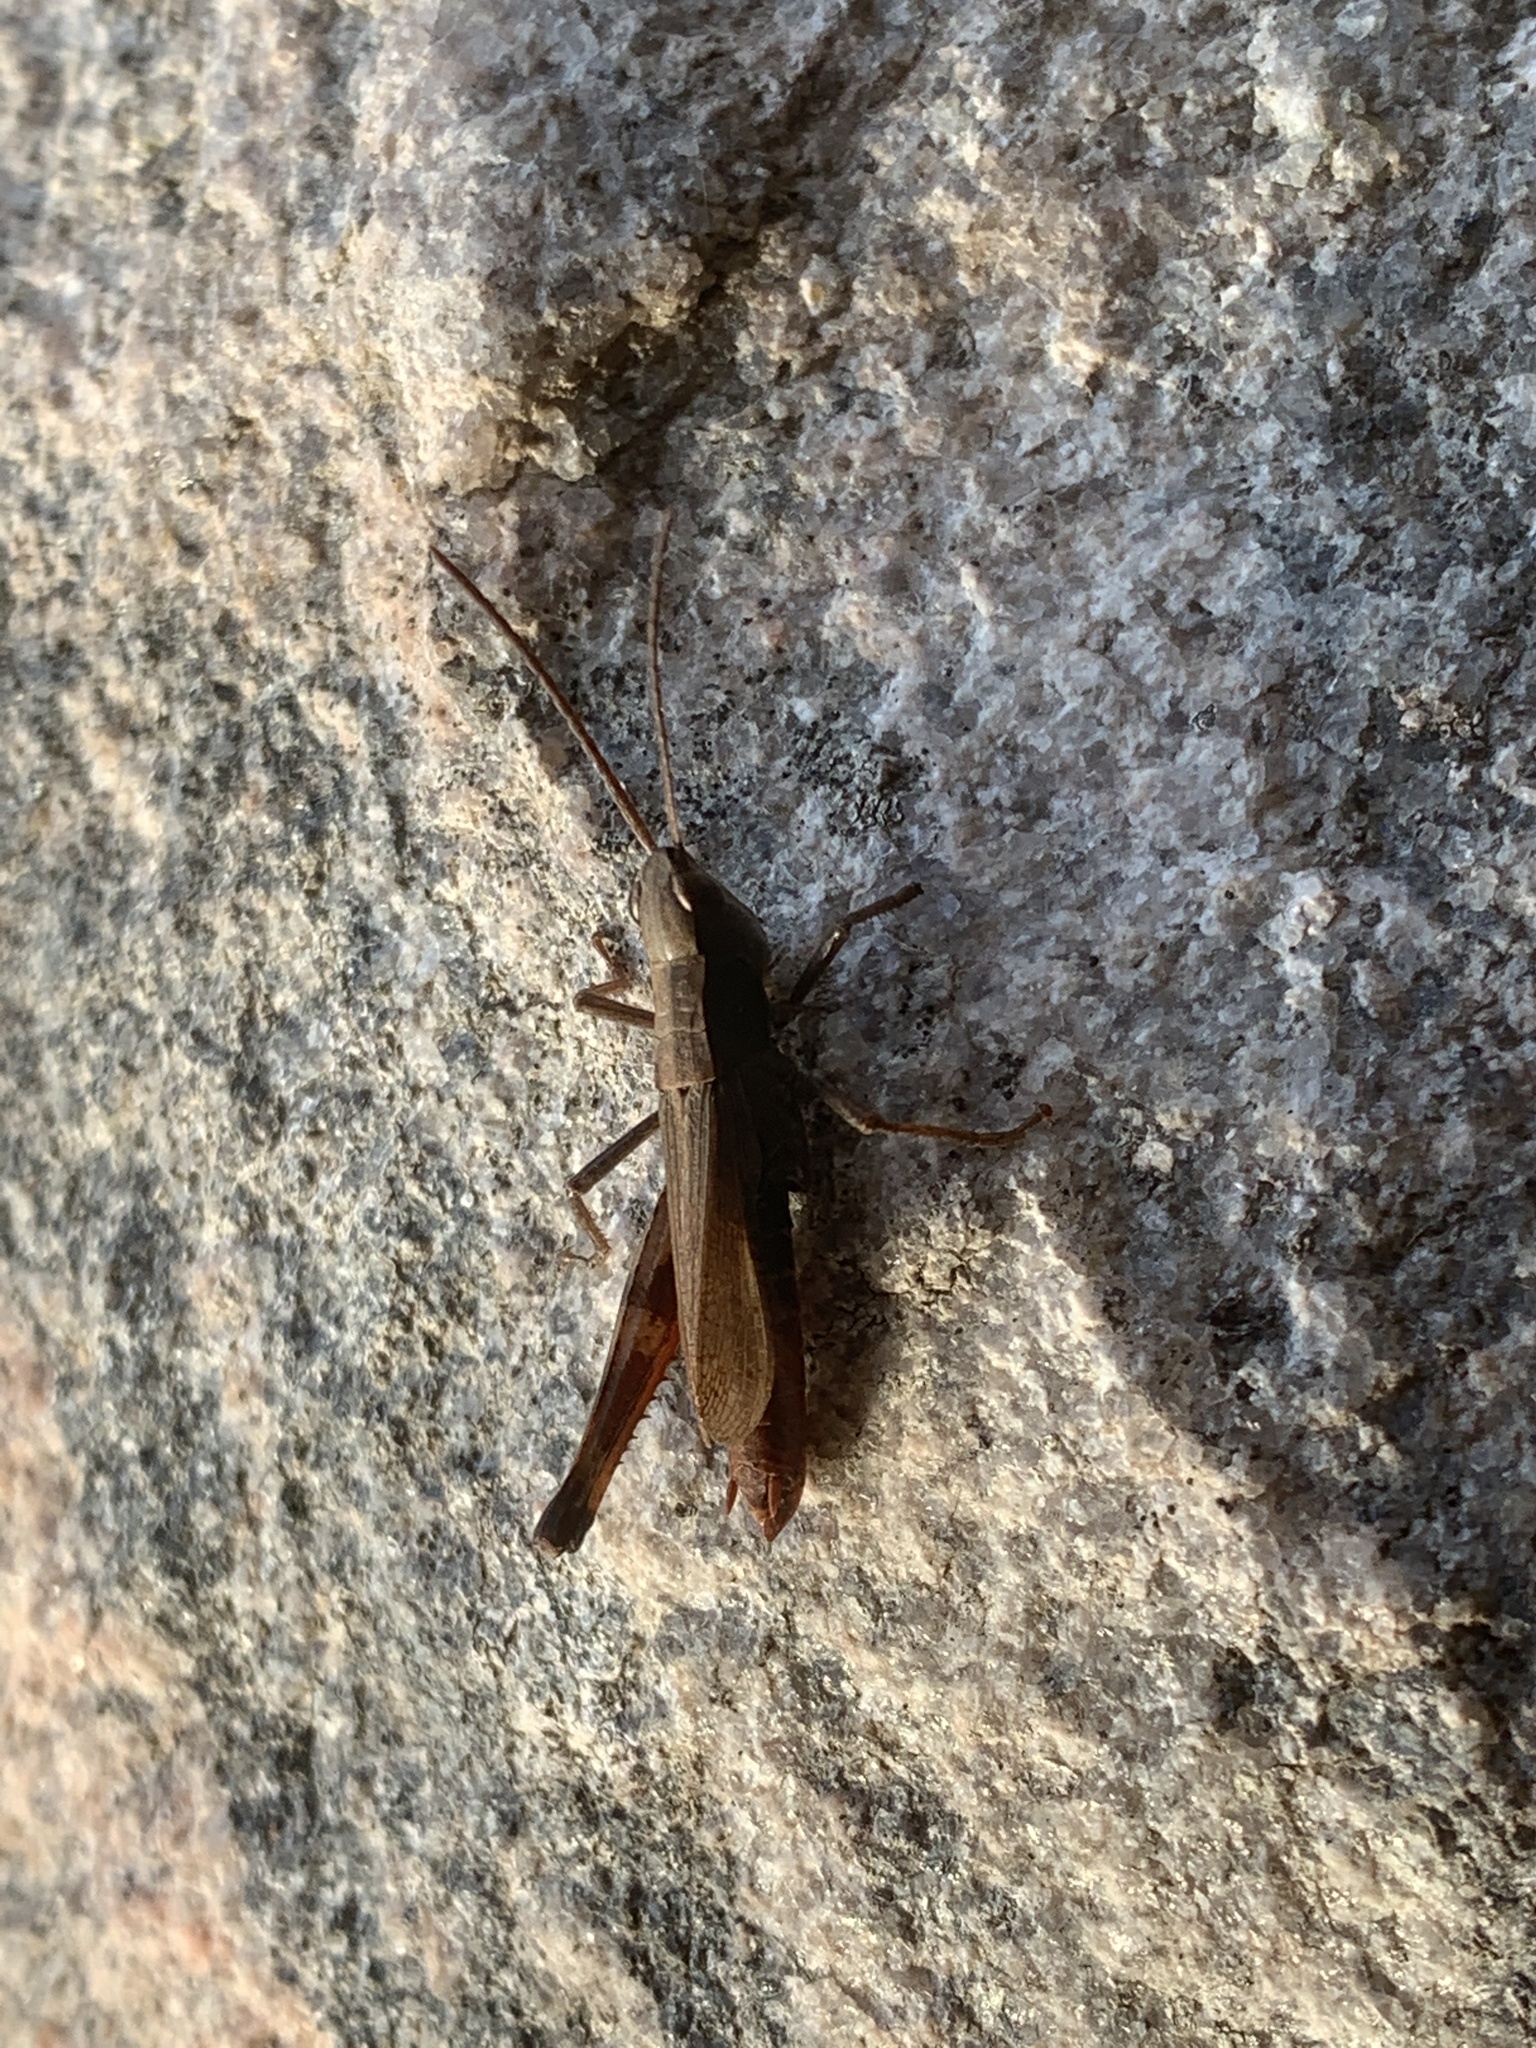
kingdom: Animalia
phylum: Arthropoda
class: Insecta
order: Orthoptera
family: Acrididae
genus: Chloealtis
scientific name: Chloealtis conspersa
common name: Sprinkled broad-winged grasshopper
